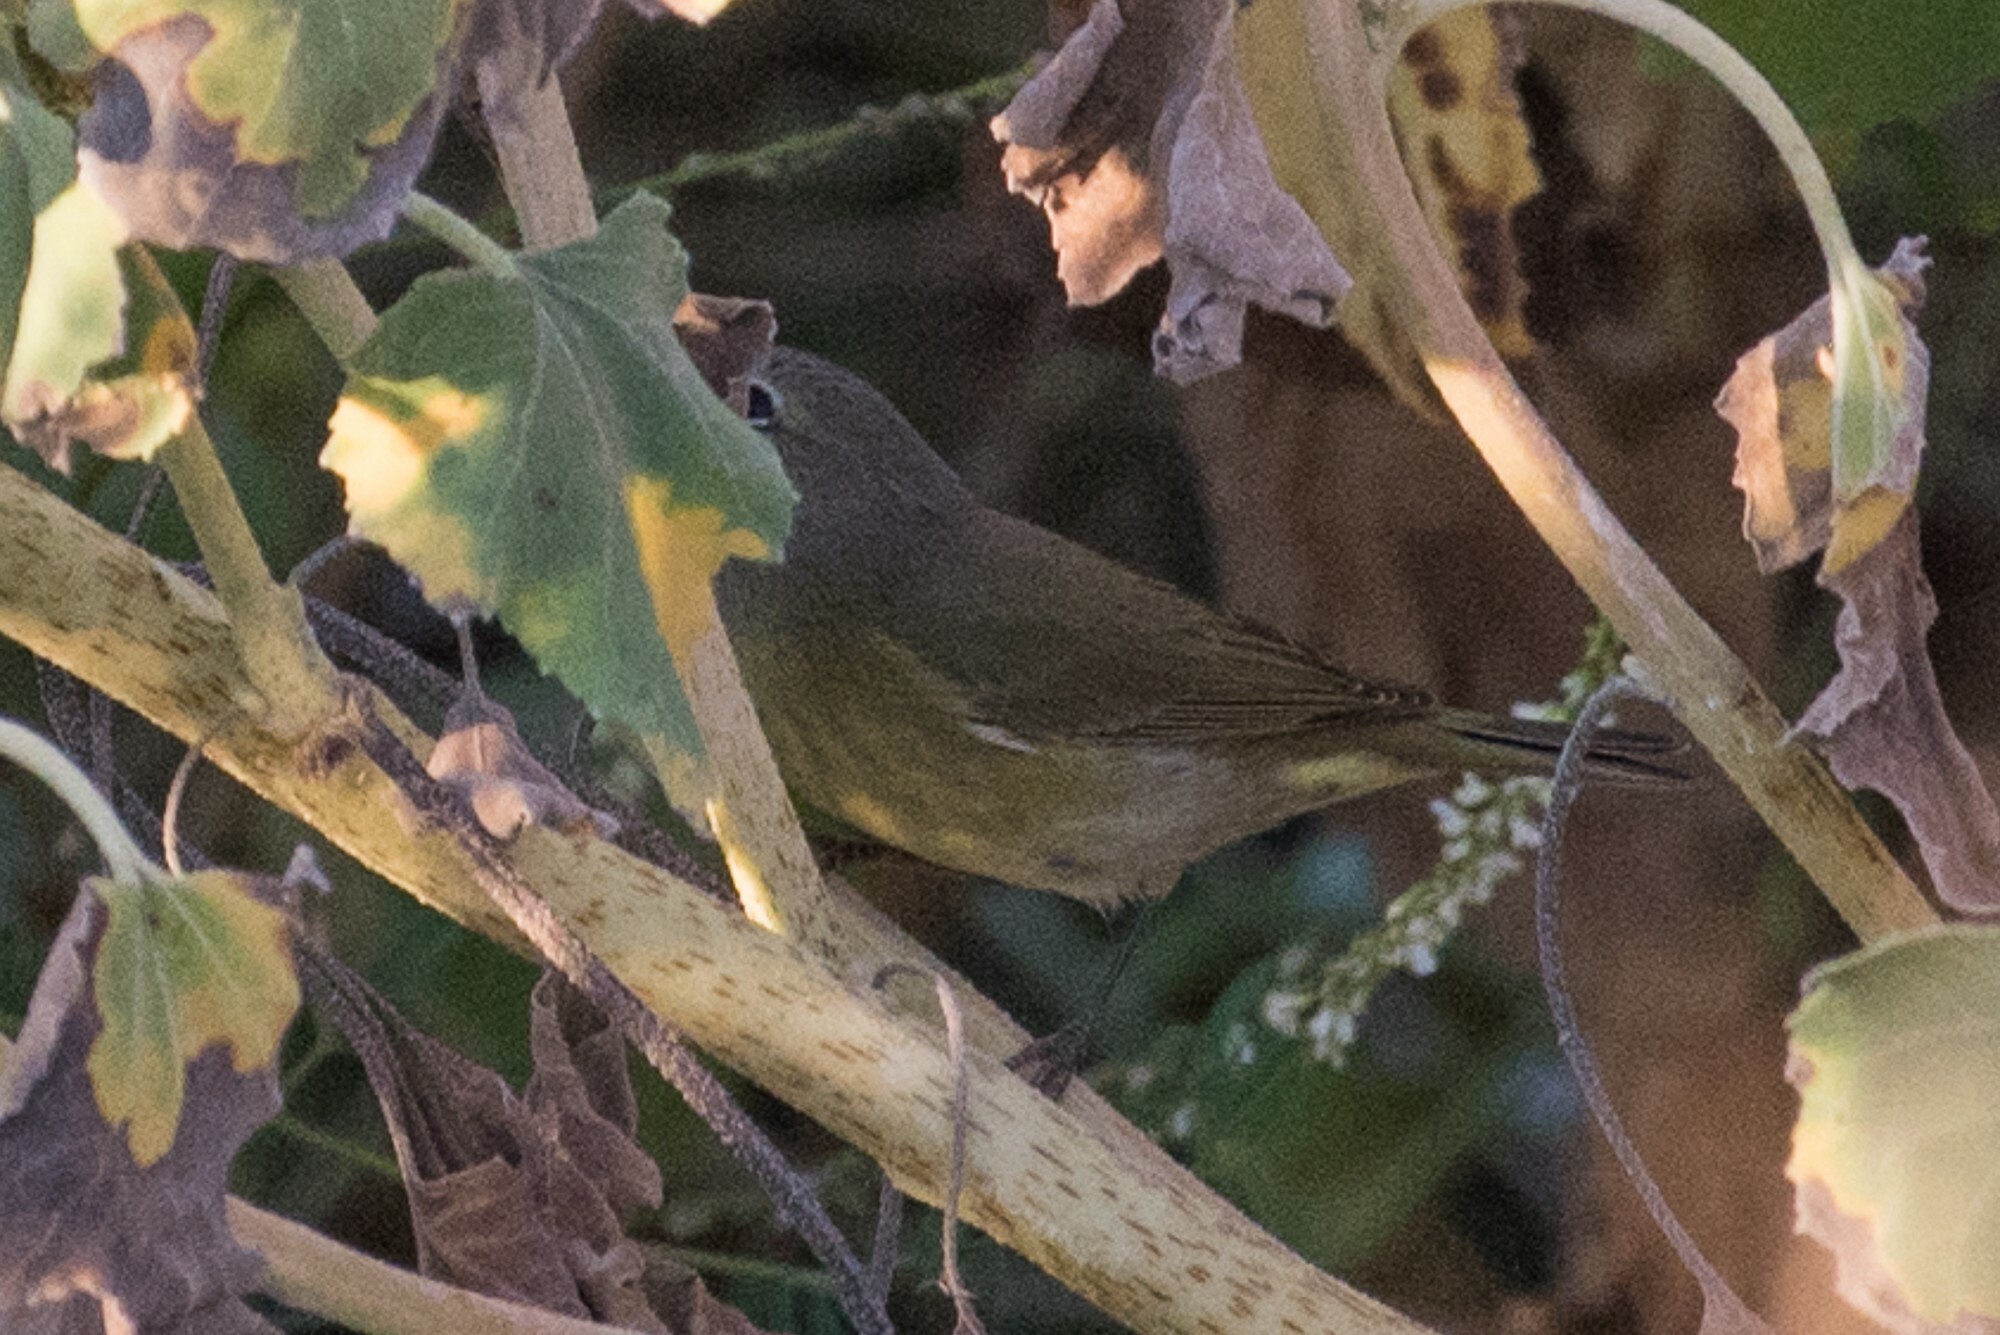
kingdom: Animalia
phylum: Chordata
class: Aves
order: Passeriformes
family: Parulidae
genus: Leiothlypis
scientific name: Leiothlypis celata
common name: Orange-crowned warbler
